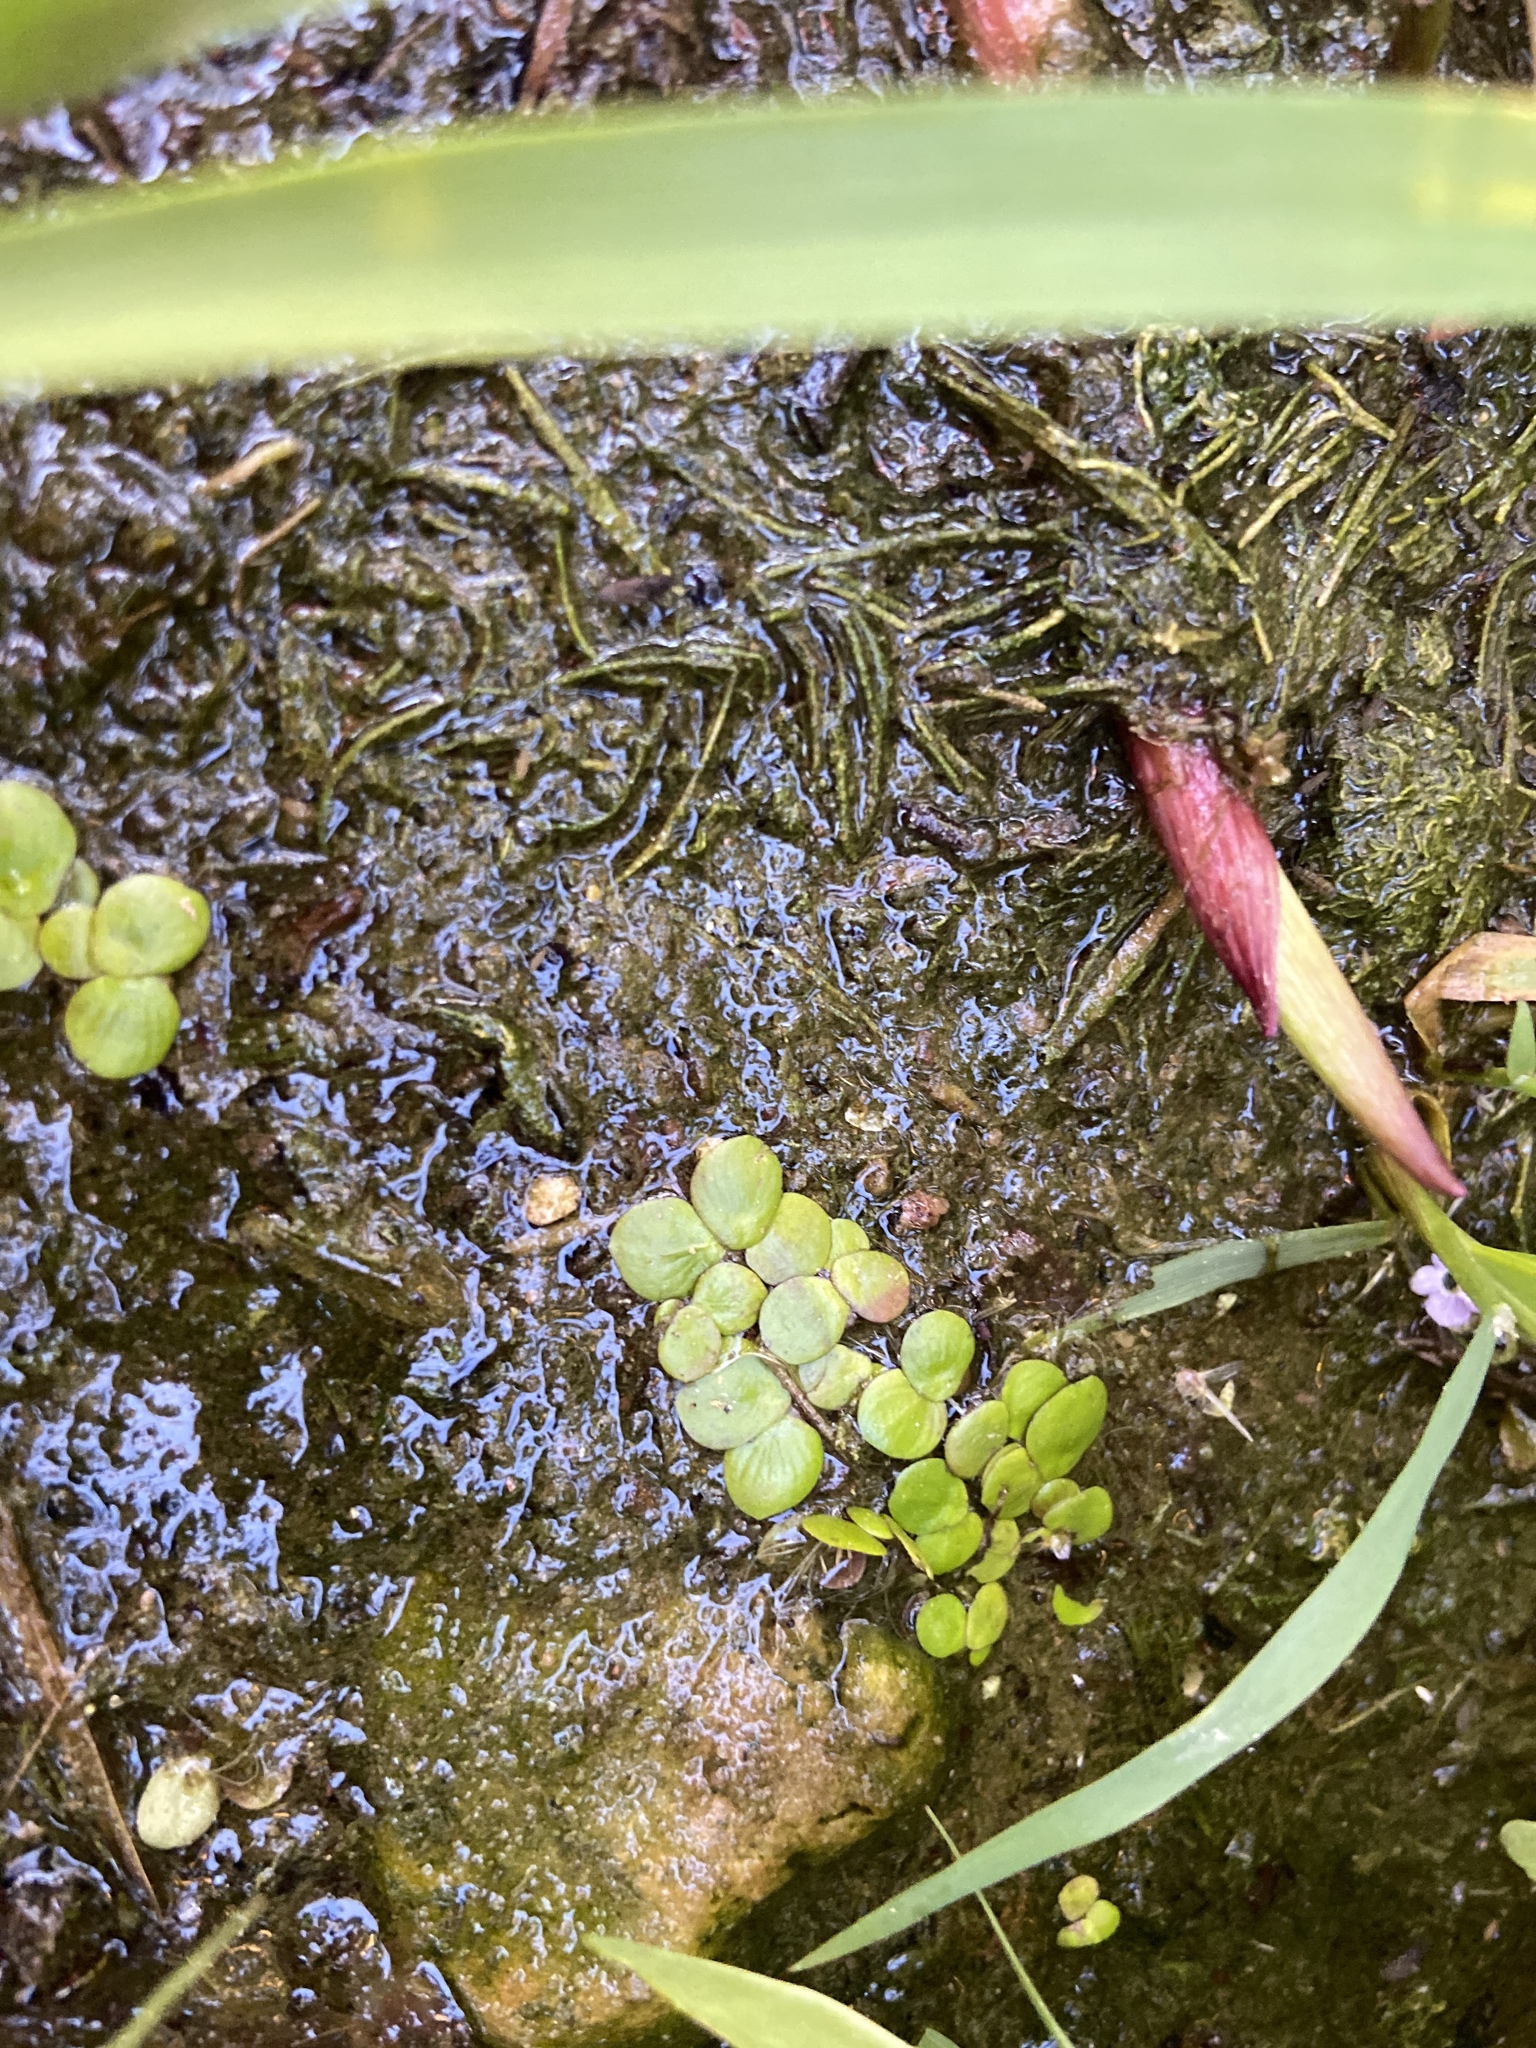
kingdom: Plantae
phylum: Tracheophyta
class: Liliopsida
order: Alismatales
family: Araceae
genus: Spirodela
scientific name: Spirodela polyrhiza
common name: Great duckweed
